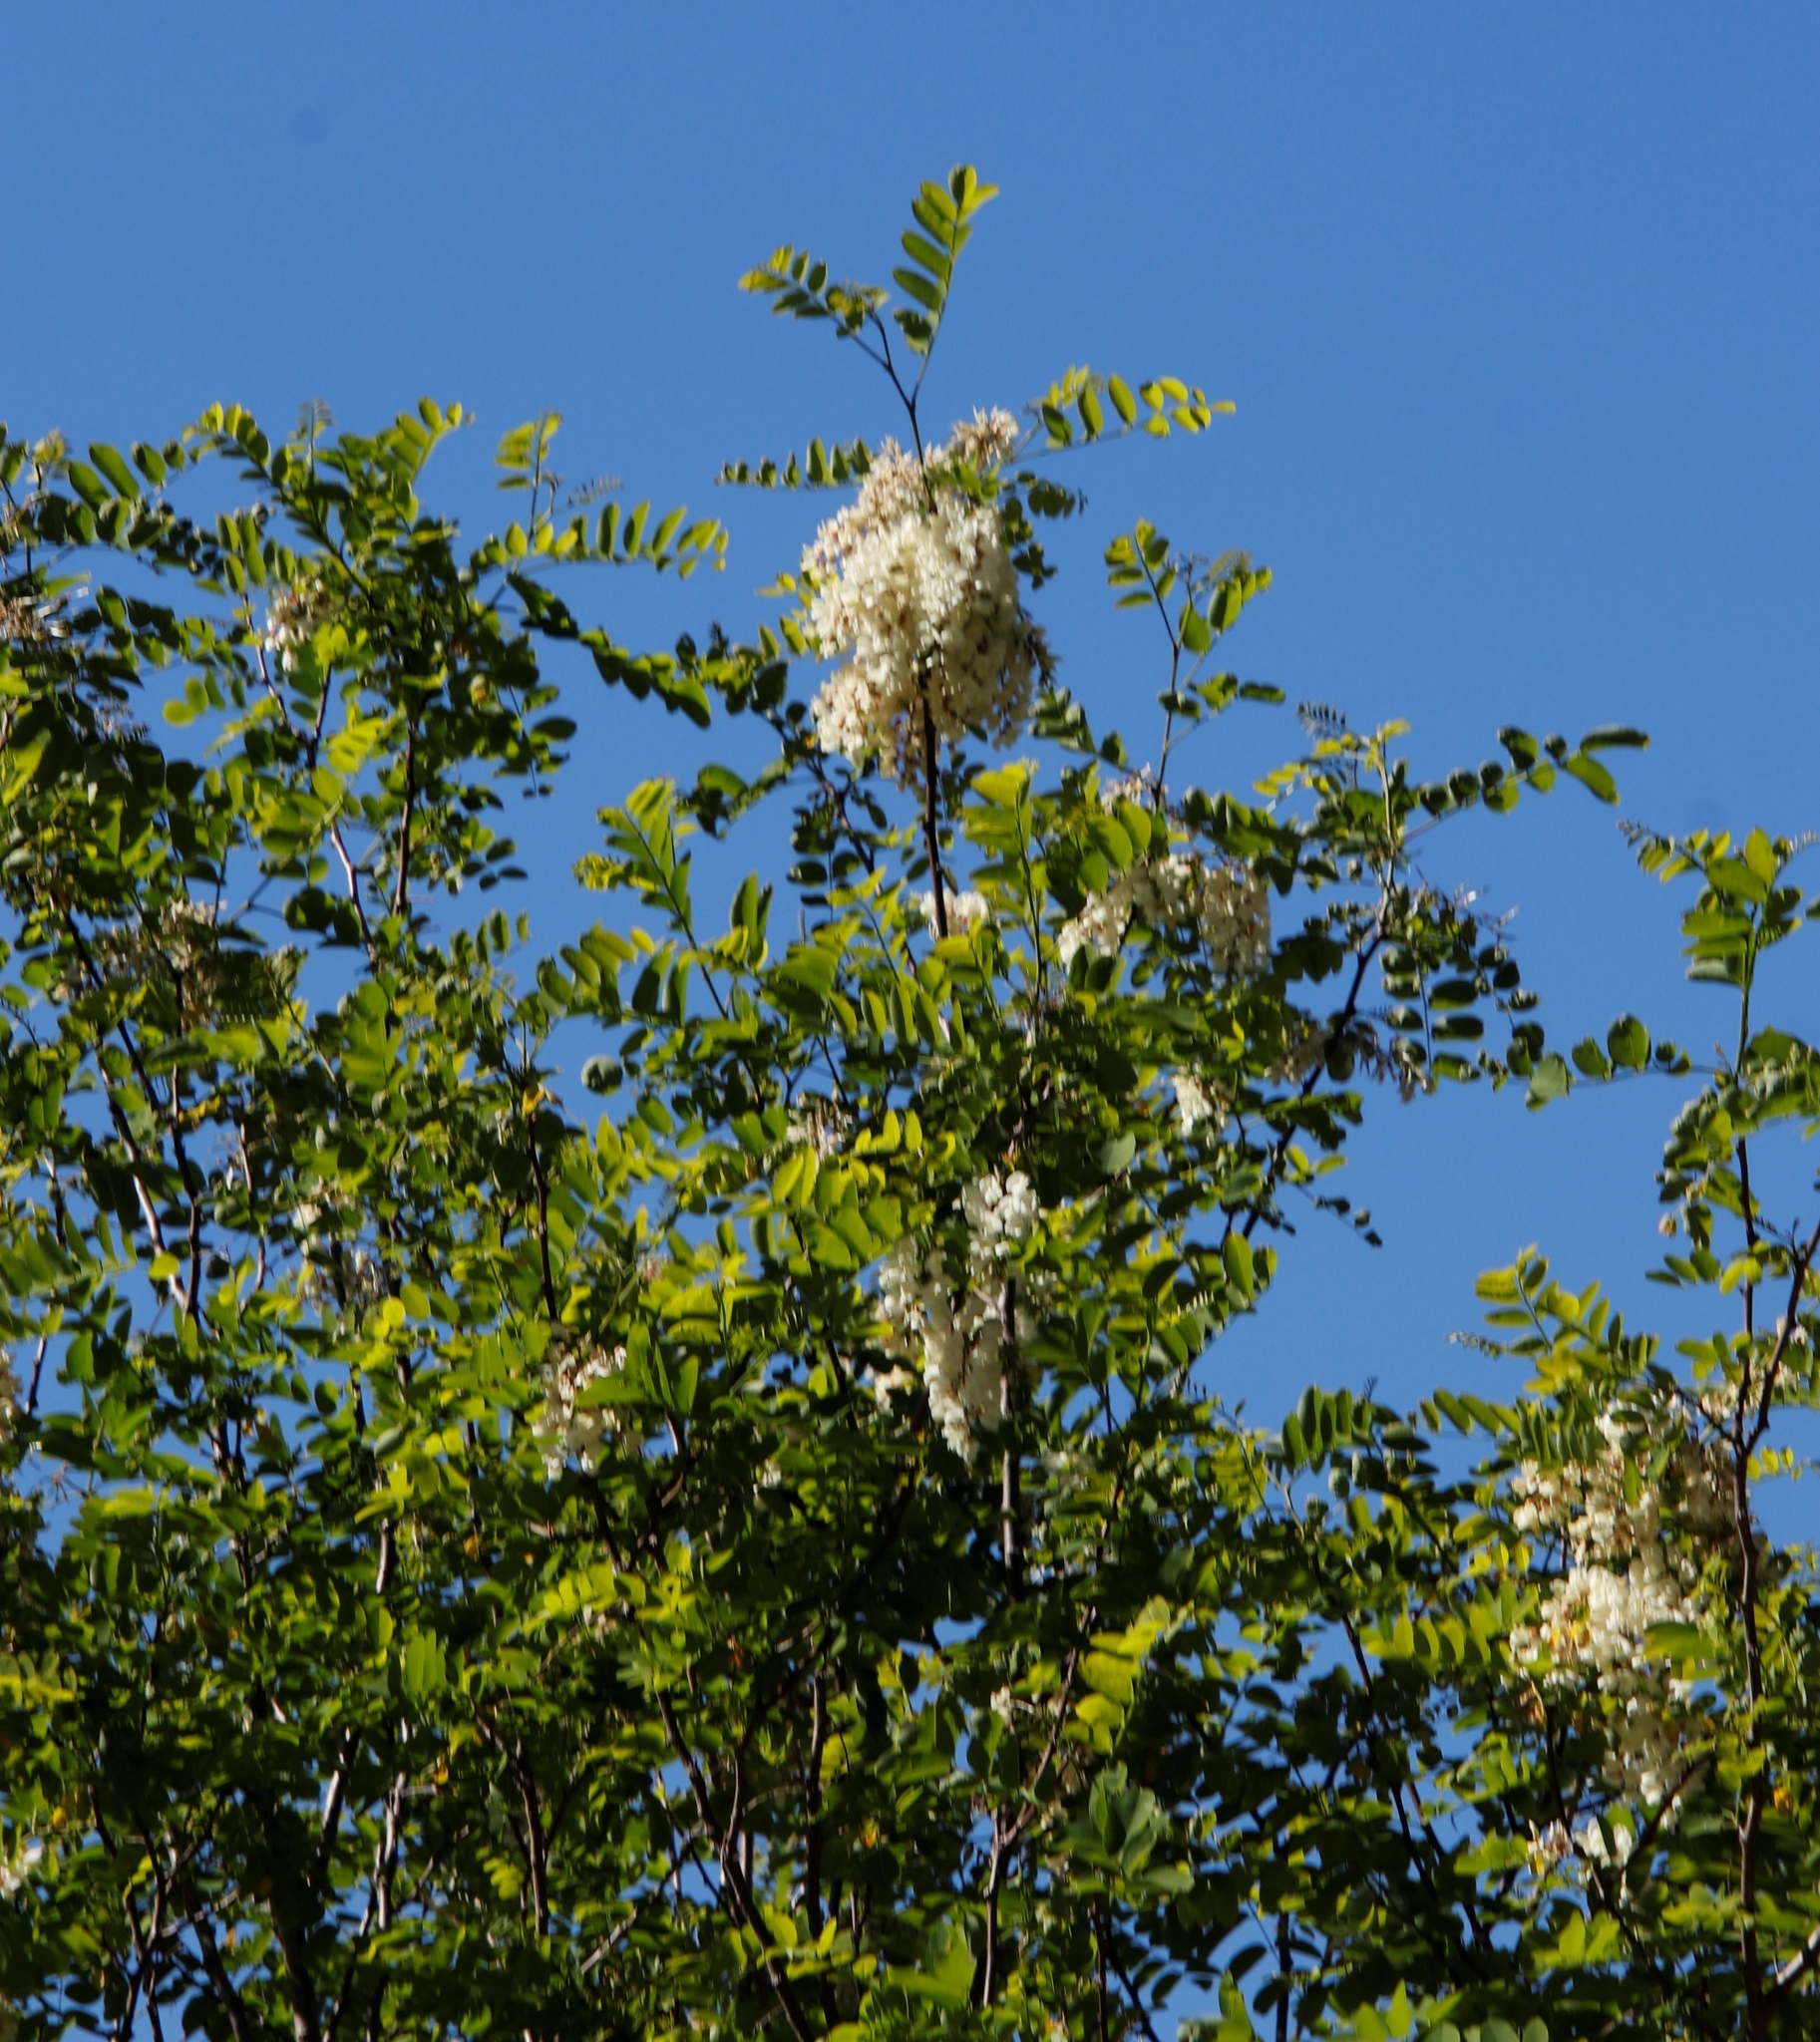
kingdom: Plantae
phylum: Tracheophyta
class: Magnoliopsida
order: Fabales
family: Fabaceae
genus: Robinia
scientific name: Robinia pseudoacacia
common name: Black locust
